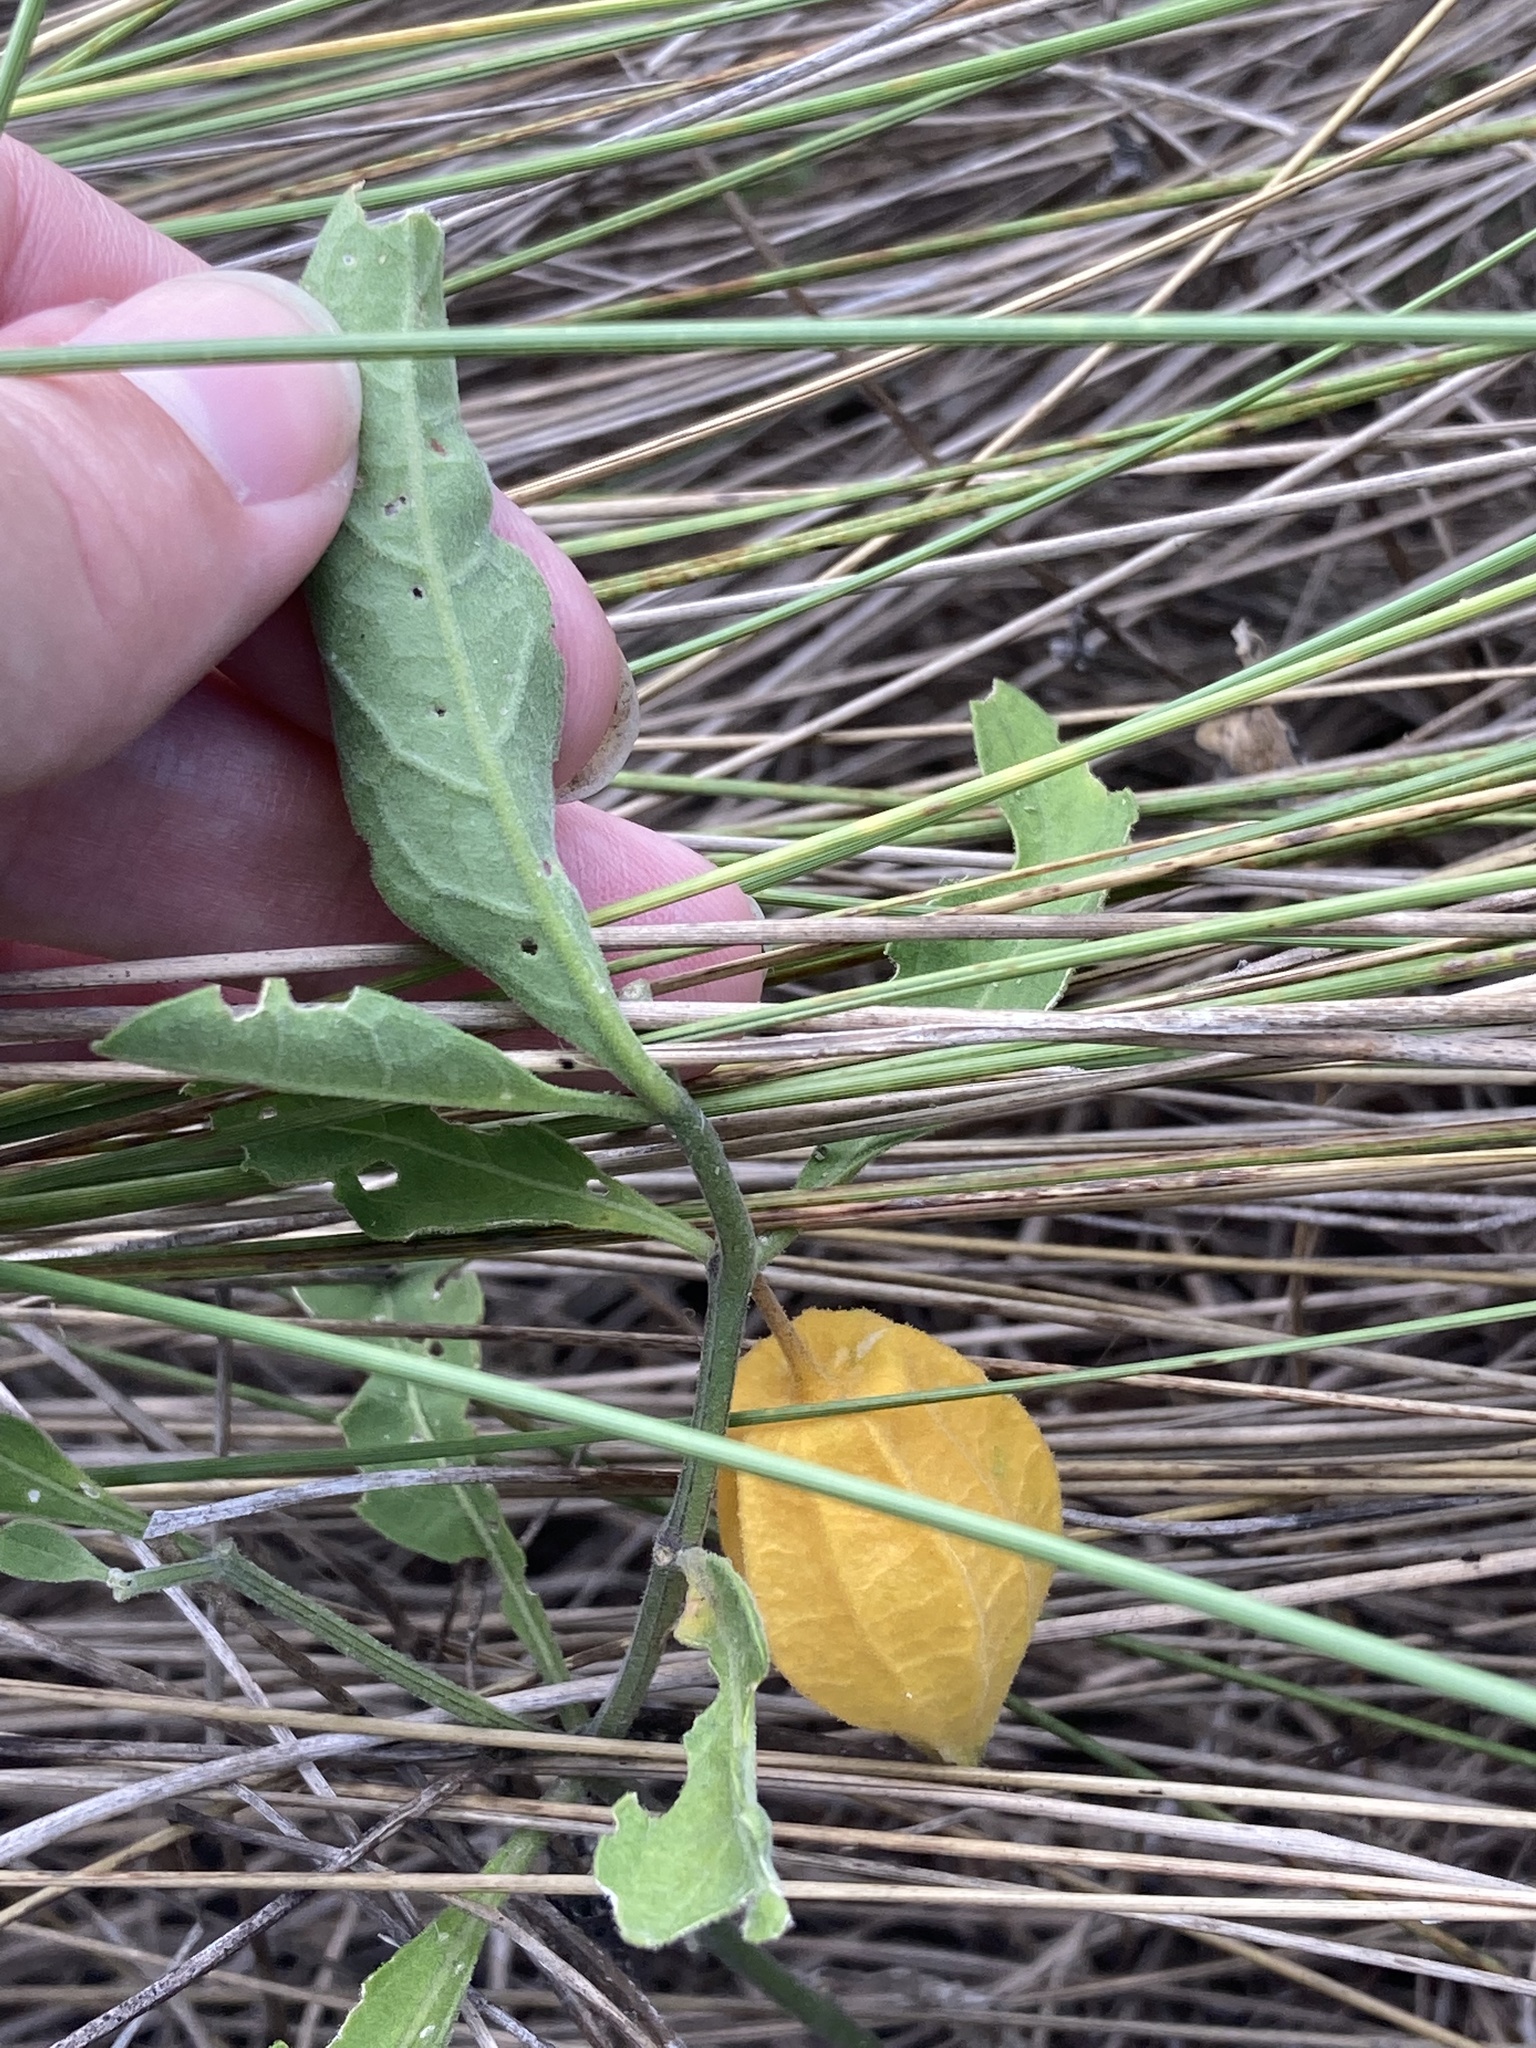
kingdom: Plantae
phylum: Tracheophyta
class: Magnoliopsida
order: Solanales
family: Solanaceae
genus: Physalis
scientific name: Physalis walteri
